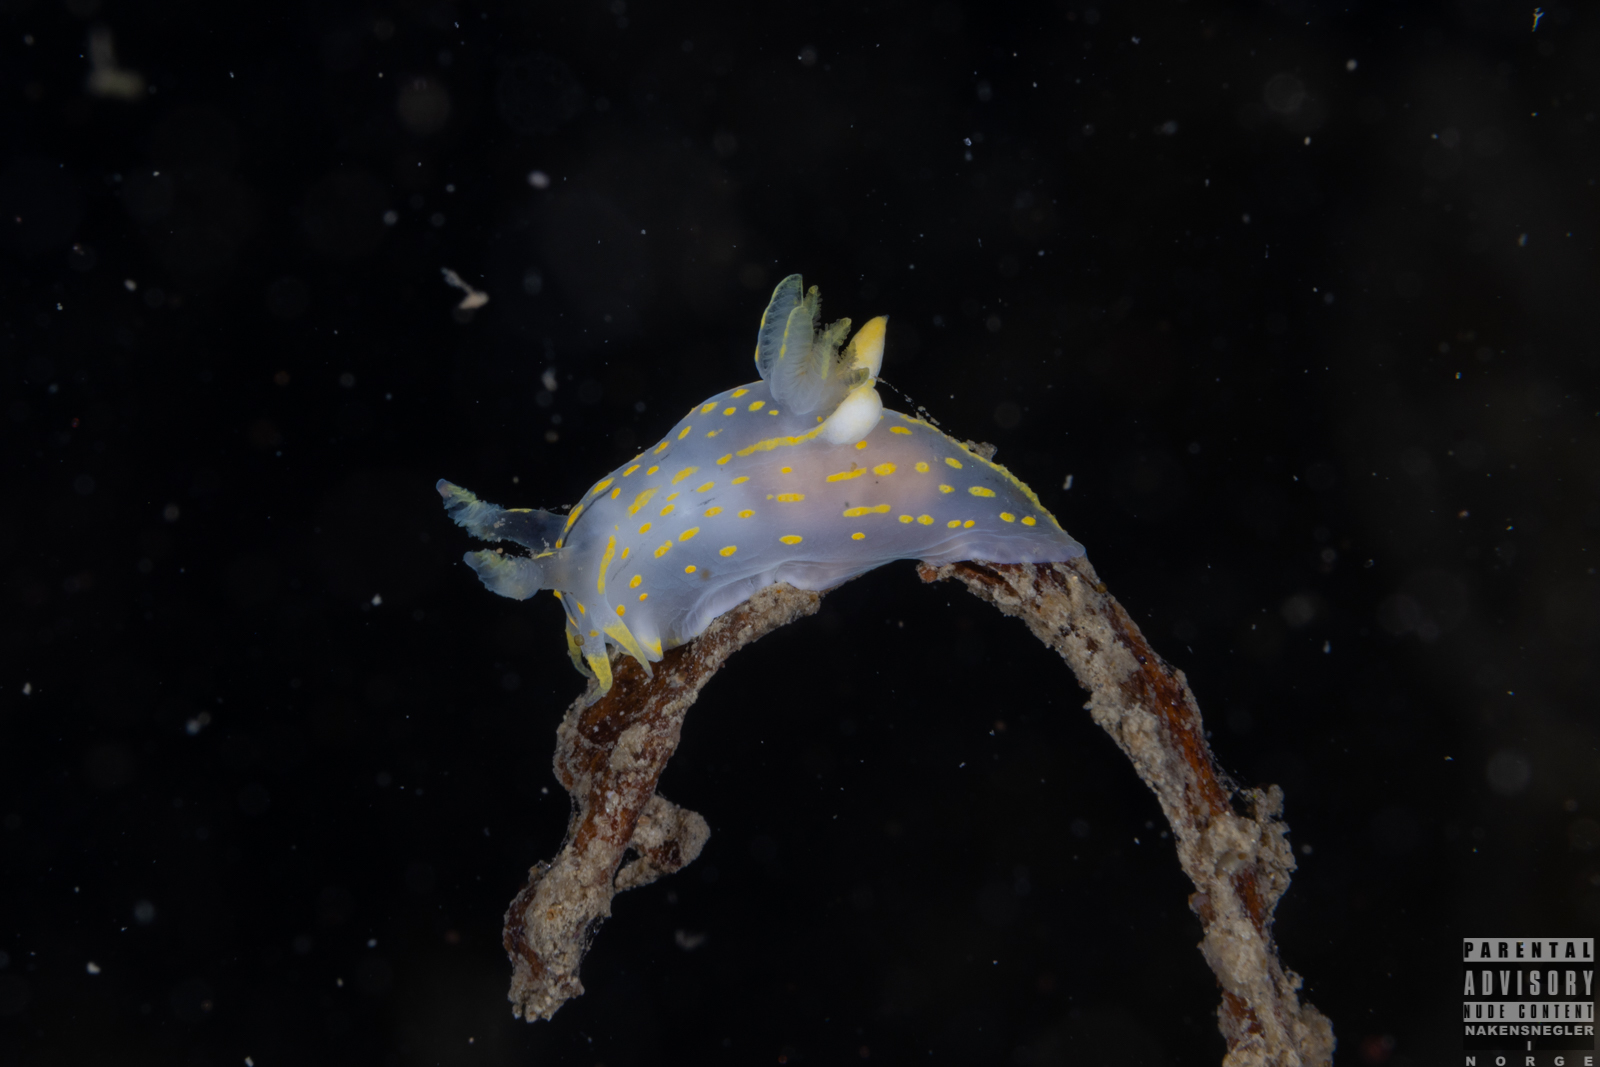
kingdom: Animalia
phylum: Mollusca
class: Gastropoda
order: Nudibranchia
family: Polyceridae
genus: Polycera
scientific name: Polycera quadrilineata
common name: Four-striped polycera
